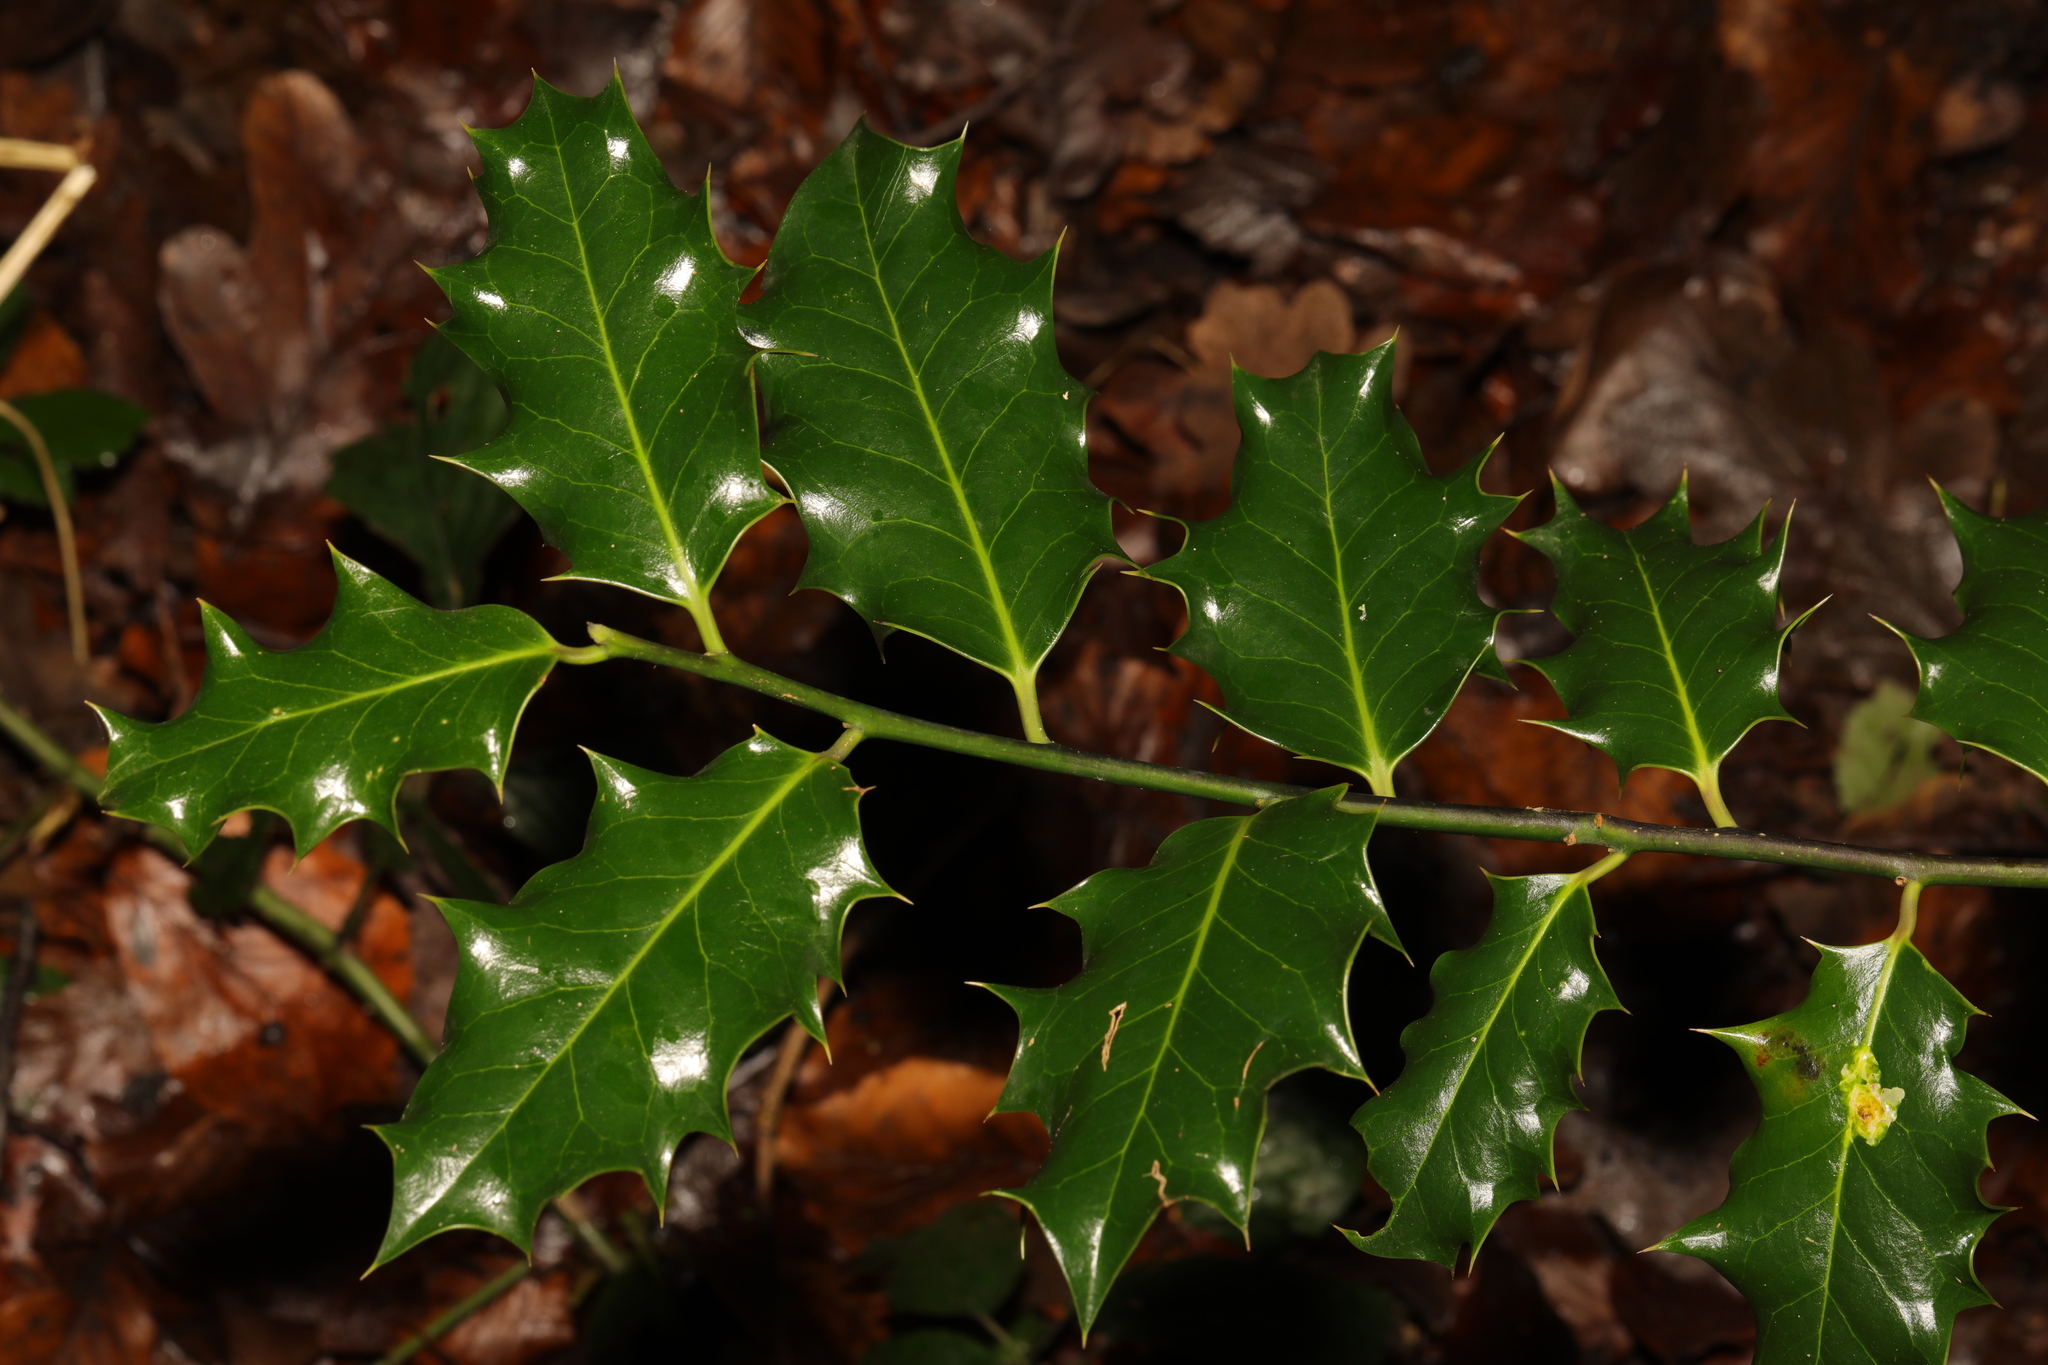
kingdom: Plantae
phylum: Tracheophyta
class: Magnoliopsida
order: Aquifoliales
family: Aquifoliaceae
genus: Ilex
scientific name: Ilex aquifolium
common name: English holly
